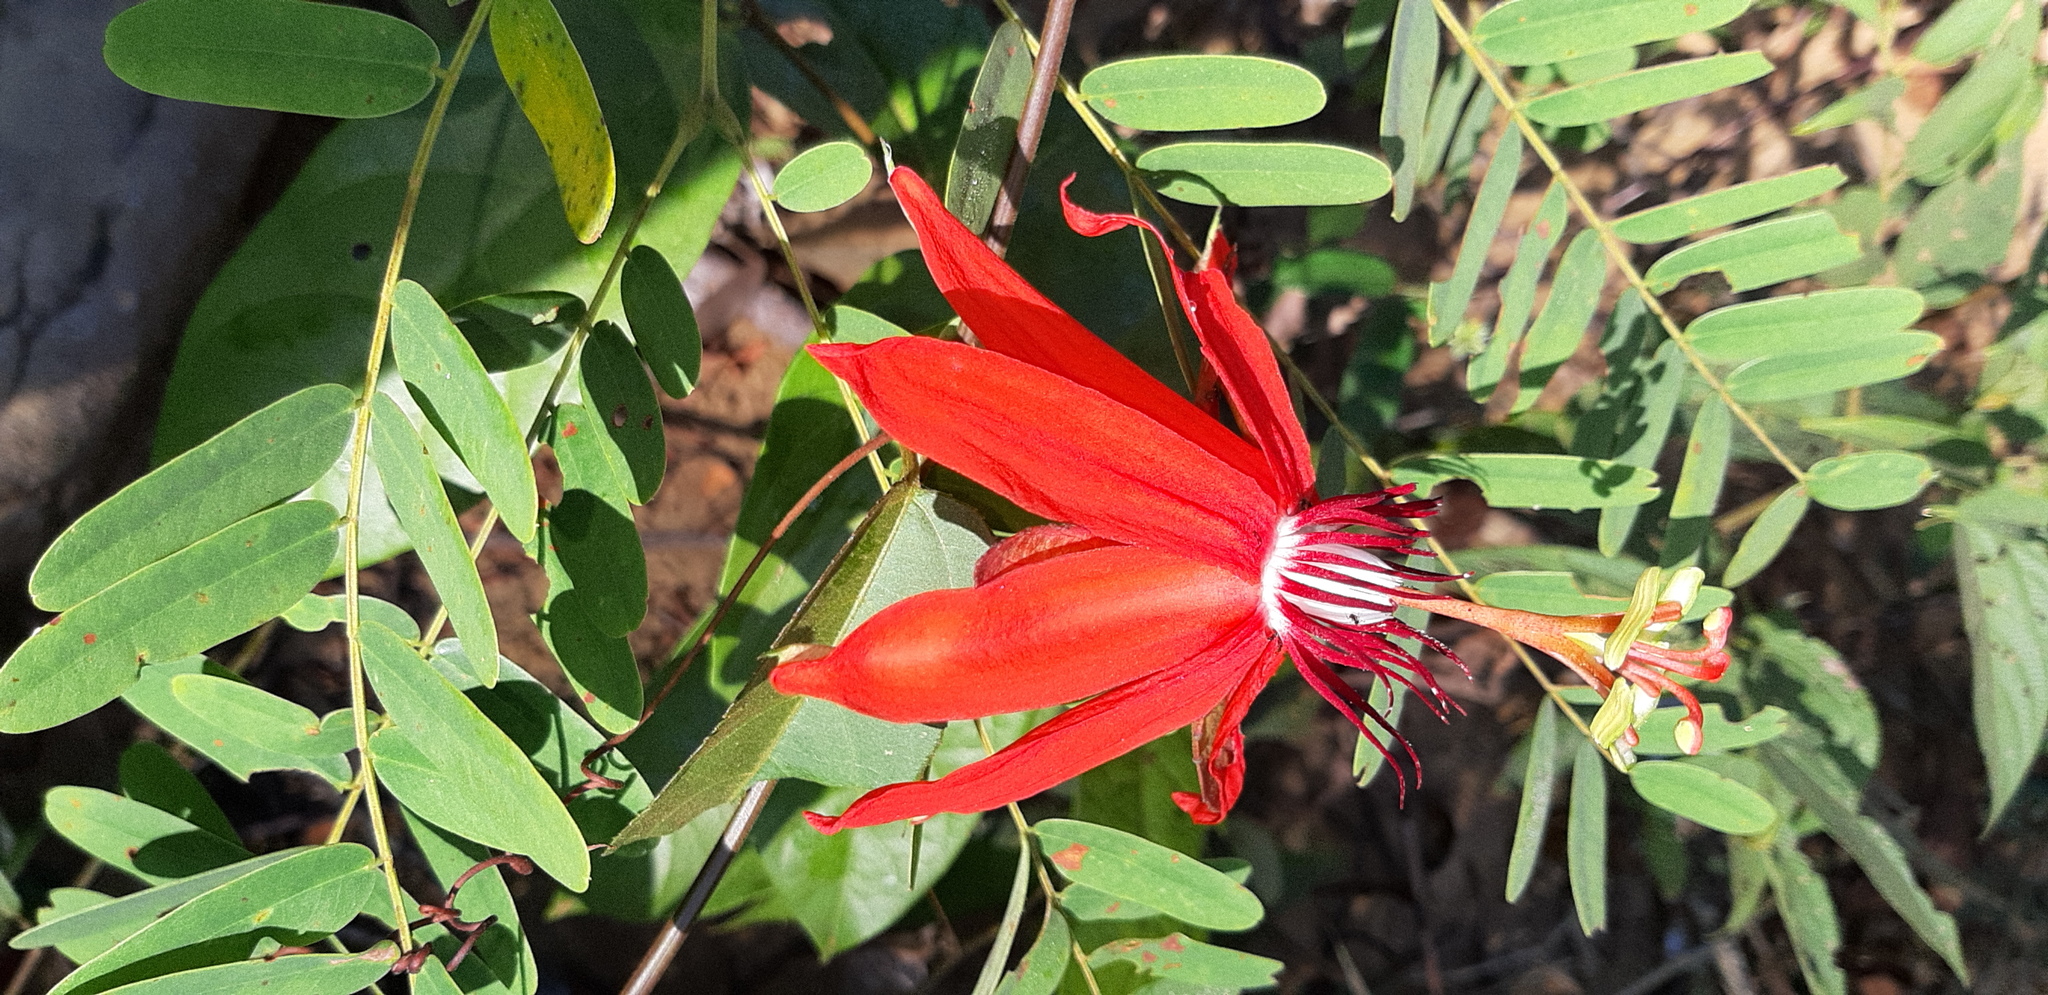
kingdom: Plantae
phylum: Tracheophyta
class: Magnoliopsida
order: Malpighiales
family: Passifloraceae
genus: Passiflora
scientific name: Passiflora miniata
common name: Red granadilla
